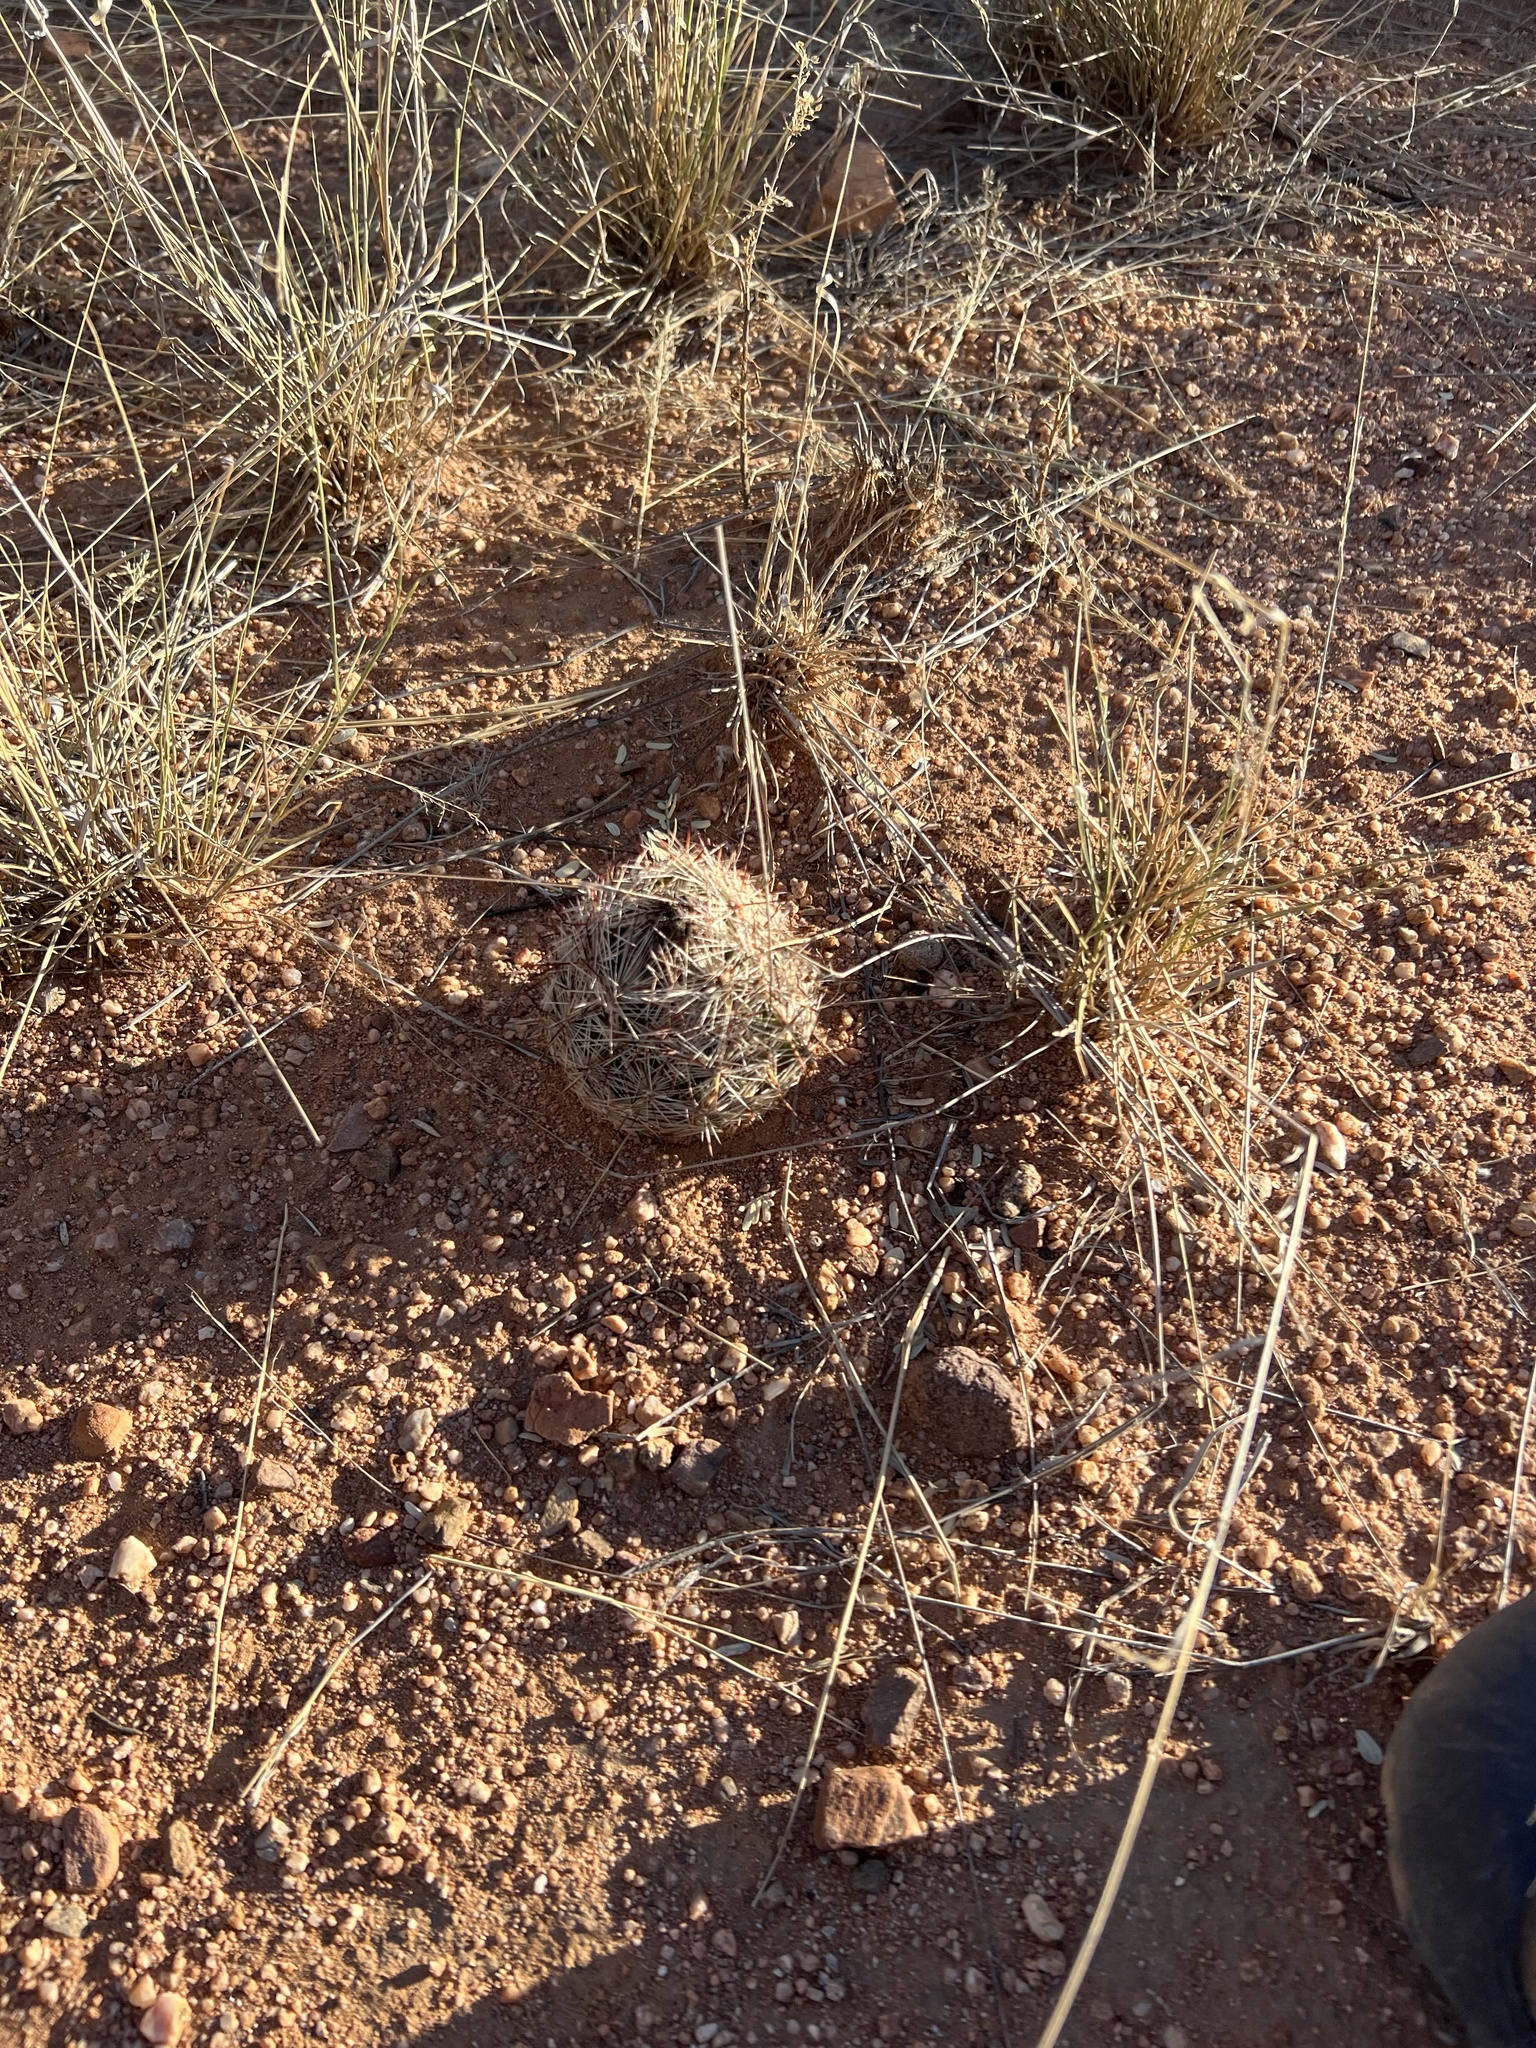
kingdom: Plantae
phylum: Tracheophyta
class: Magnoliopsida
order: Caryophyllales
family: Cactaceae
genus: Pelecyphora
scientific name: Pelecyphora vivipara
